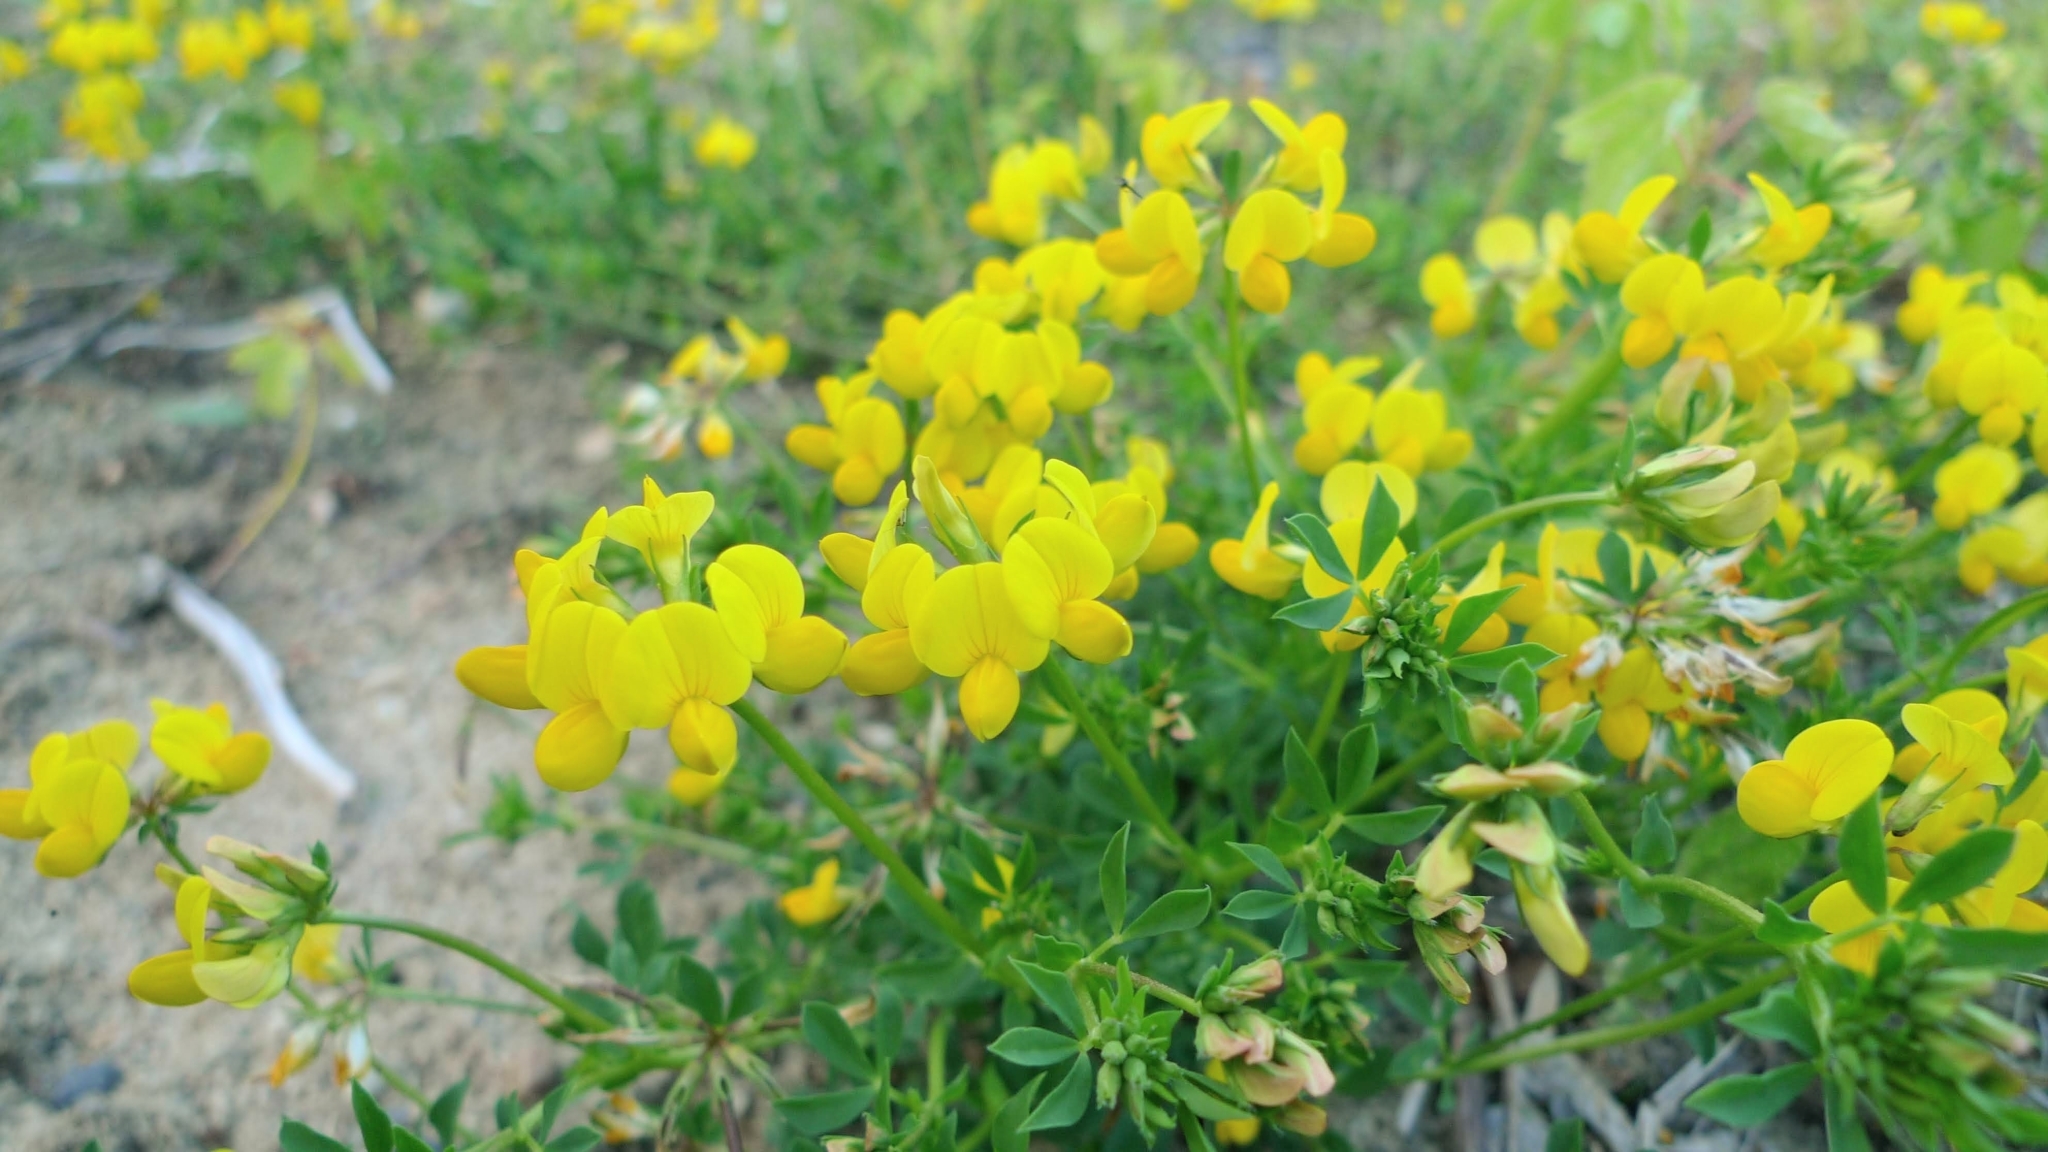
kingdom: Plantae
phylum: Tracheophyta
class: Magnoliopsida
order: Fabales
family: Fabaceae
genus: Lotus
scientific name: Lotus corniculatus
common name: Common bird's-foot-trefoil
